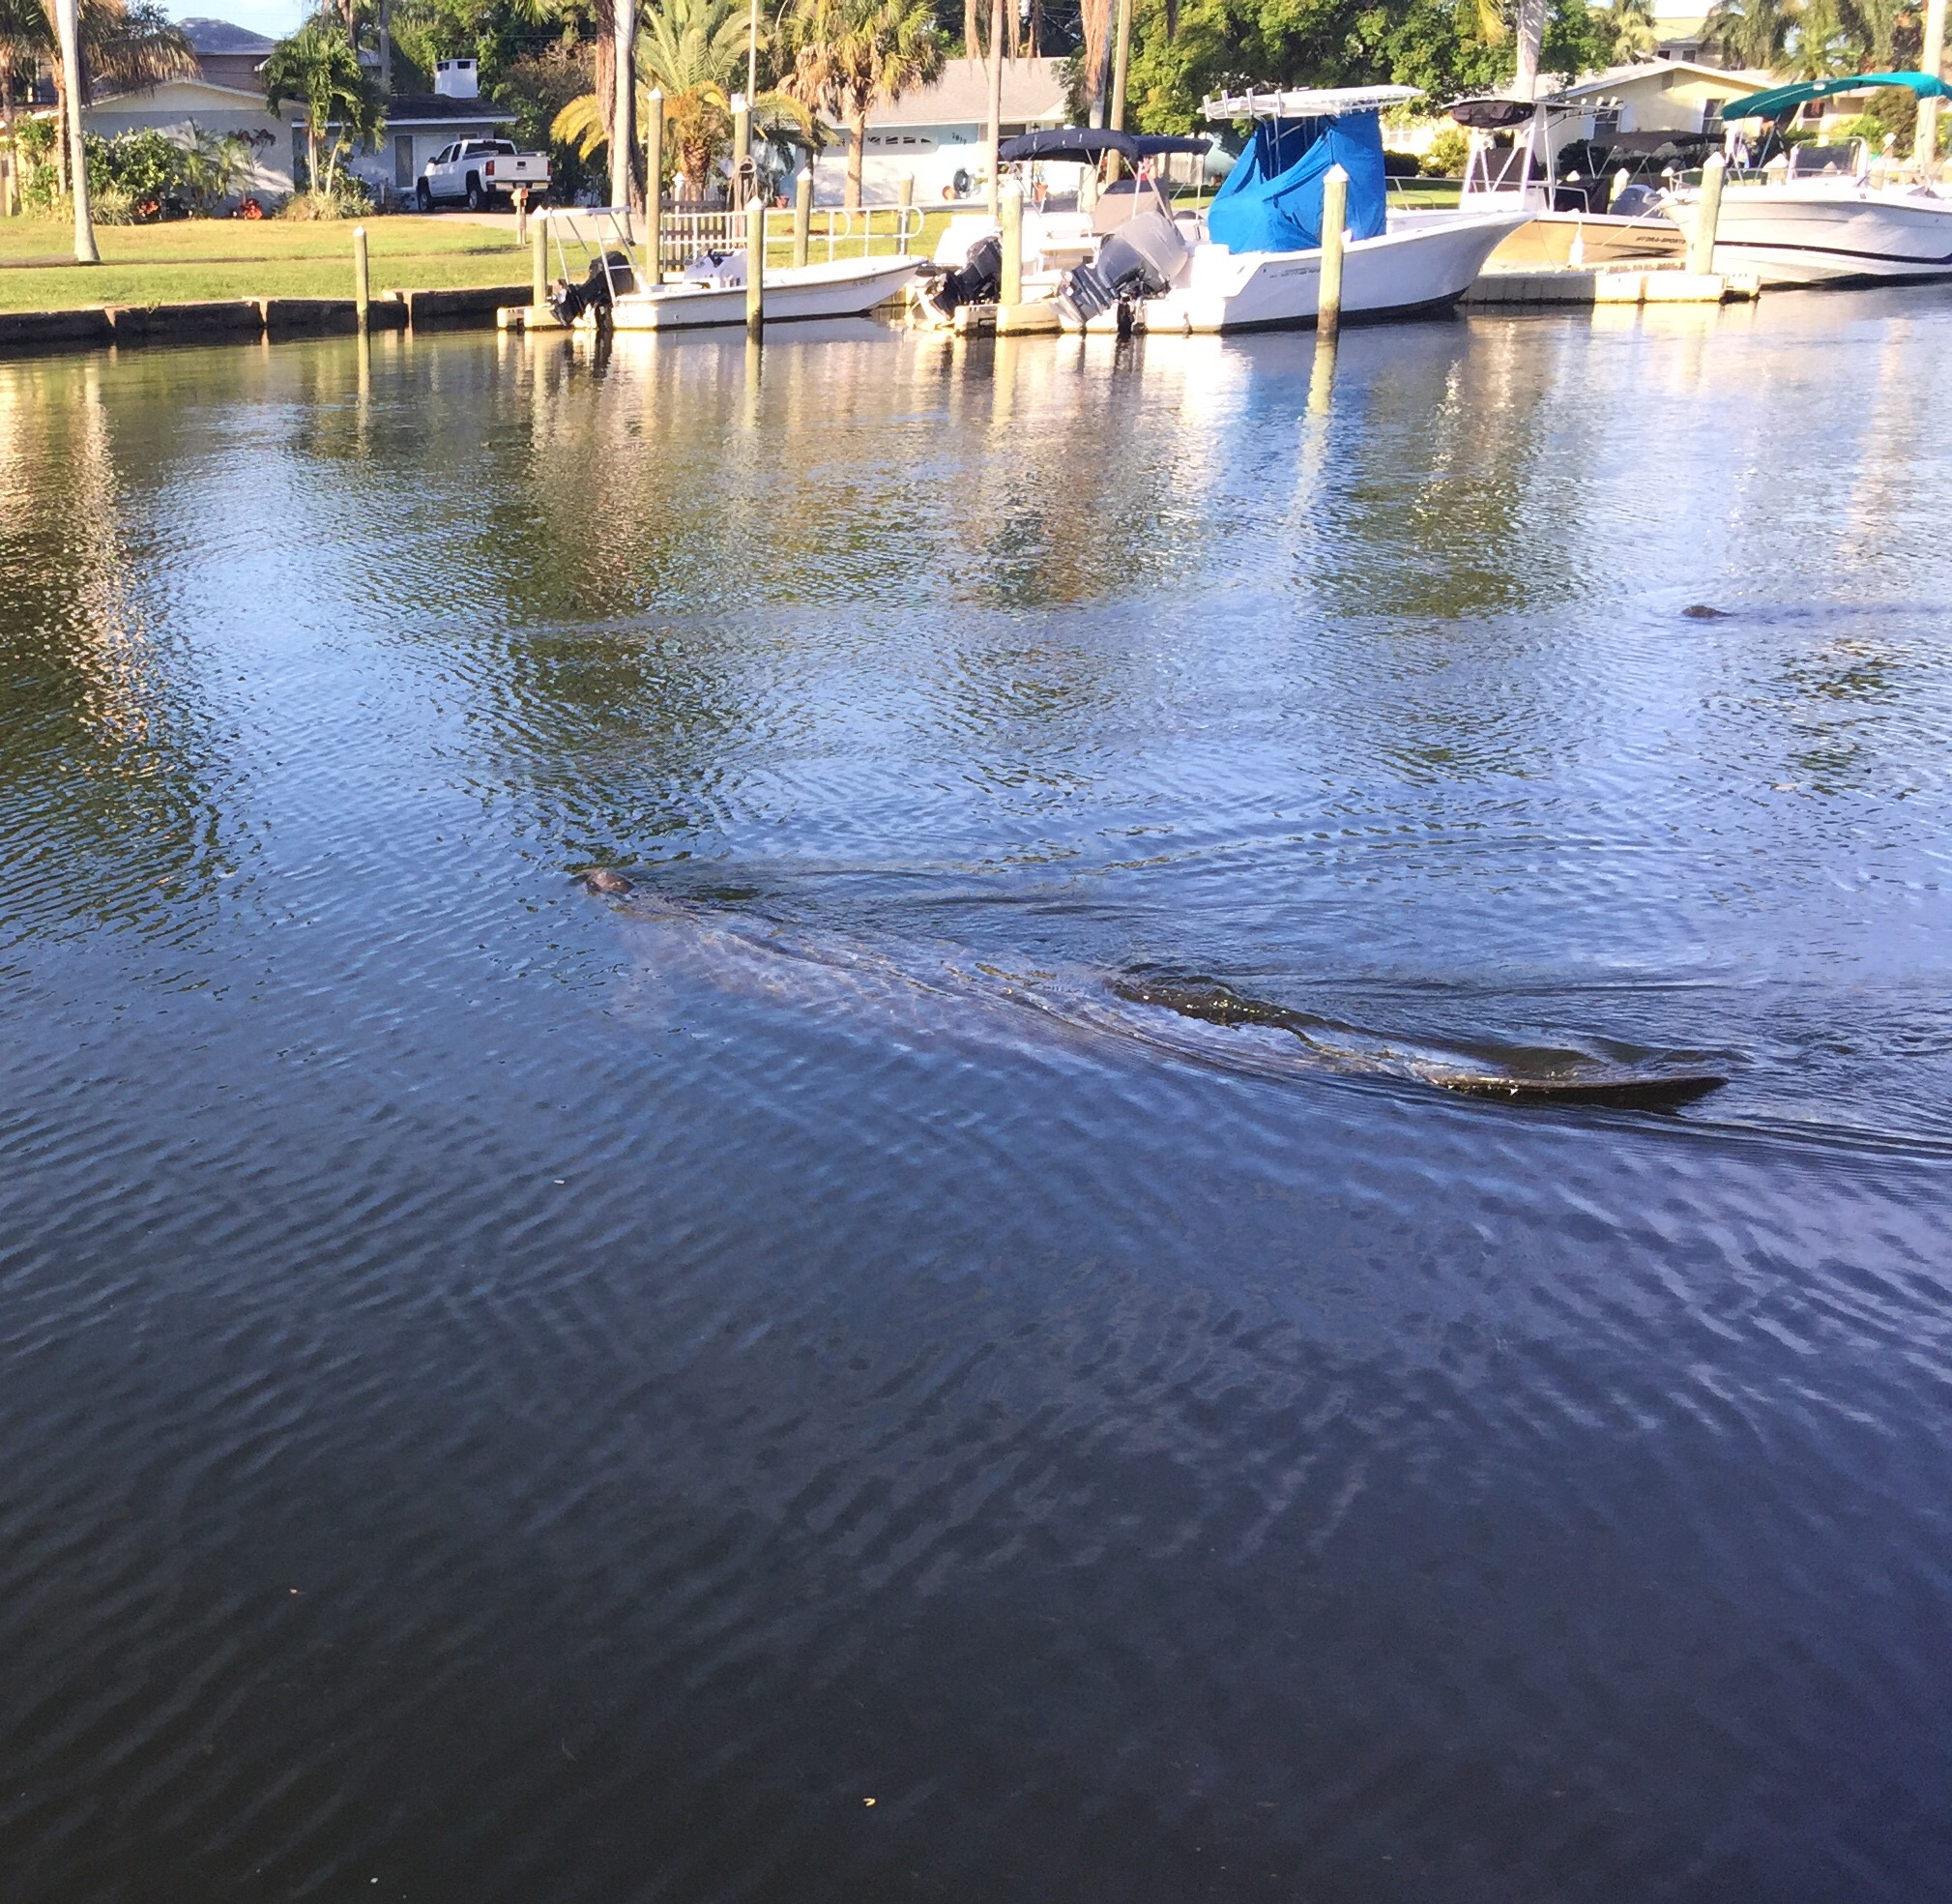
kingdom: Animalia
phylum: Chordata
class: Mammalia
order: Sirenia
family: Trichechidae
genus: Trichechus
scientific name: Trichechus manatus
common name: West indian manatee
